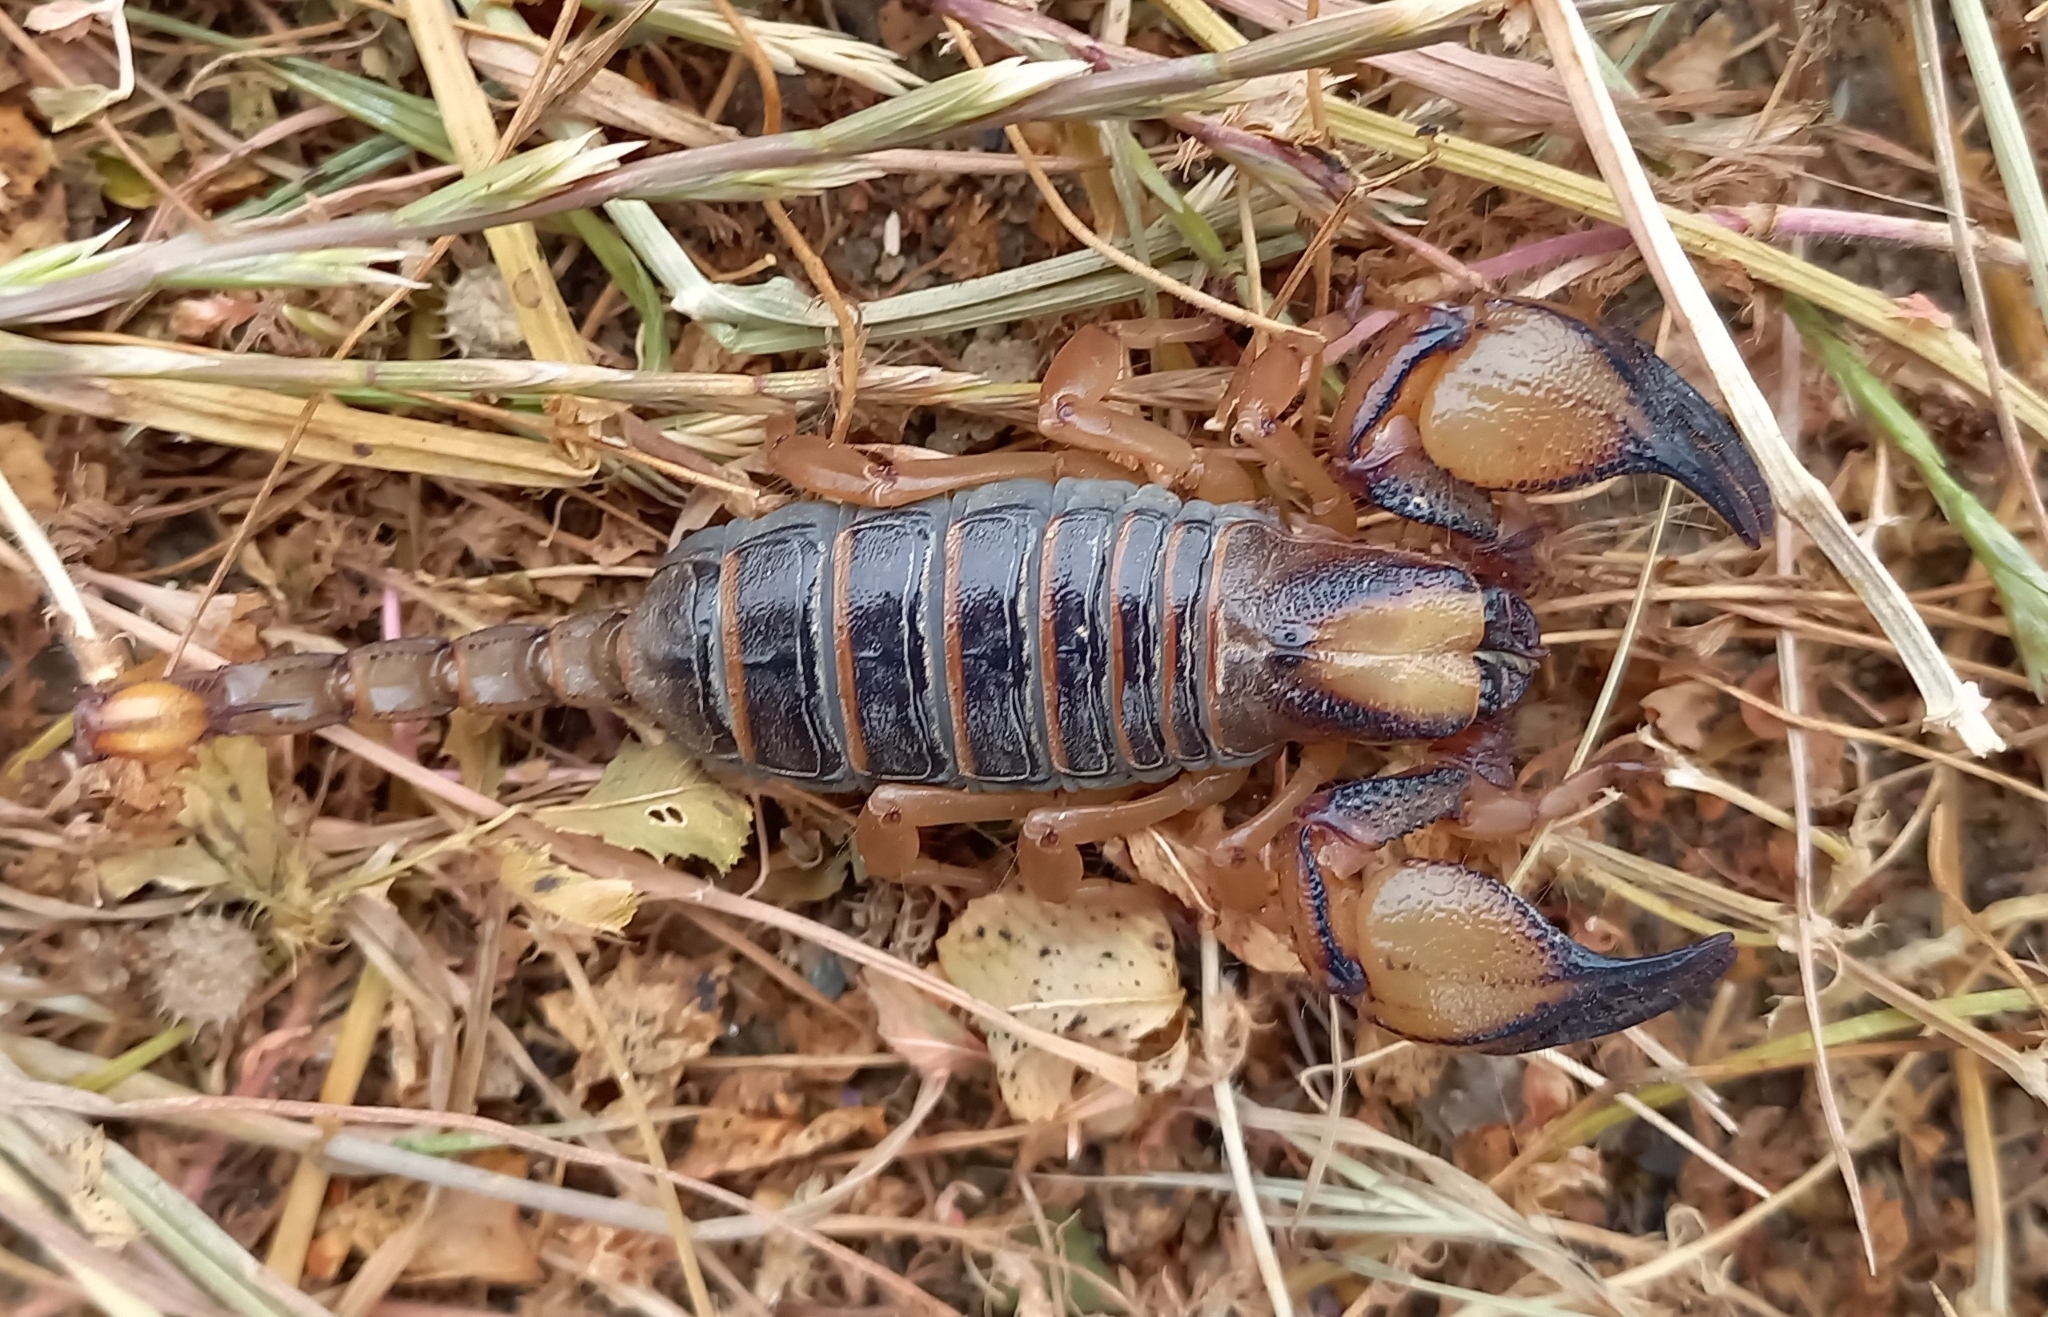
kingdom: Animalia
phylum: Arthropoda
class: Arachnida
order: Scorpiones
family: Scorpionidae
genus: Opistophthalmus
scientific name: Opistophthalmus capensis
